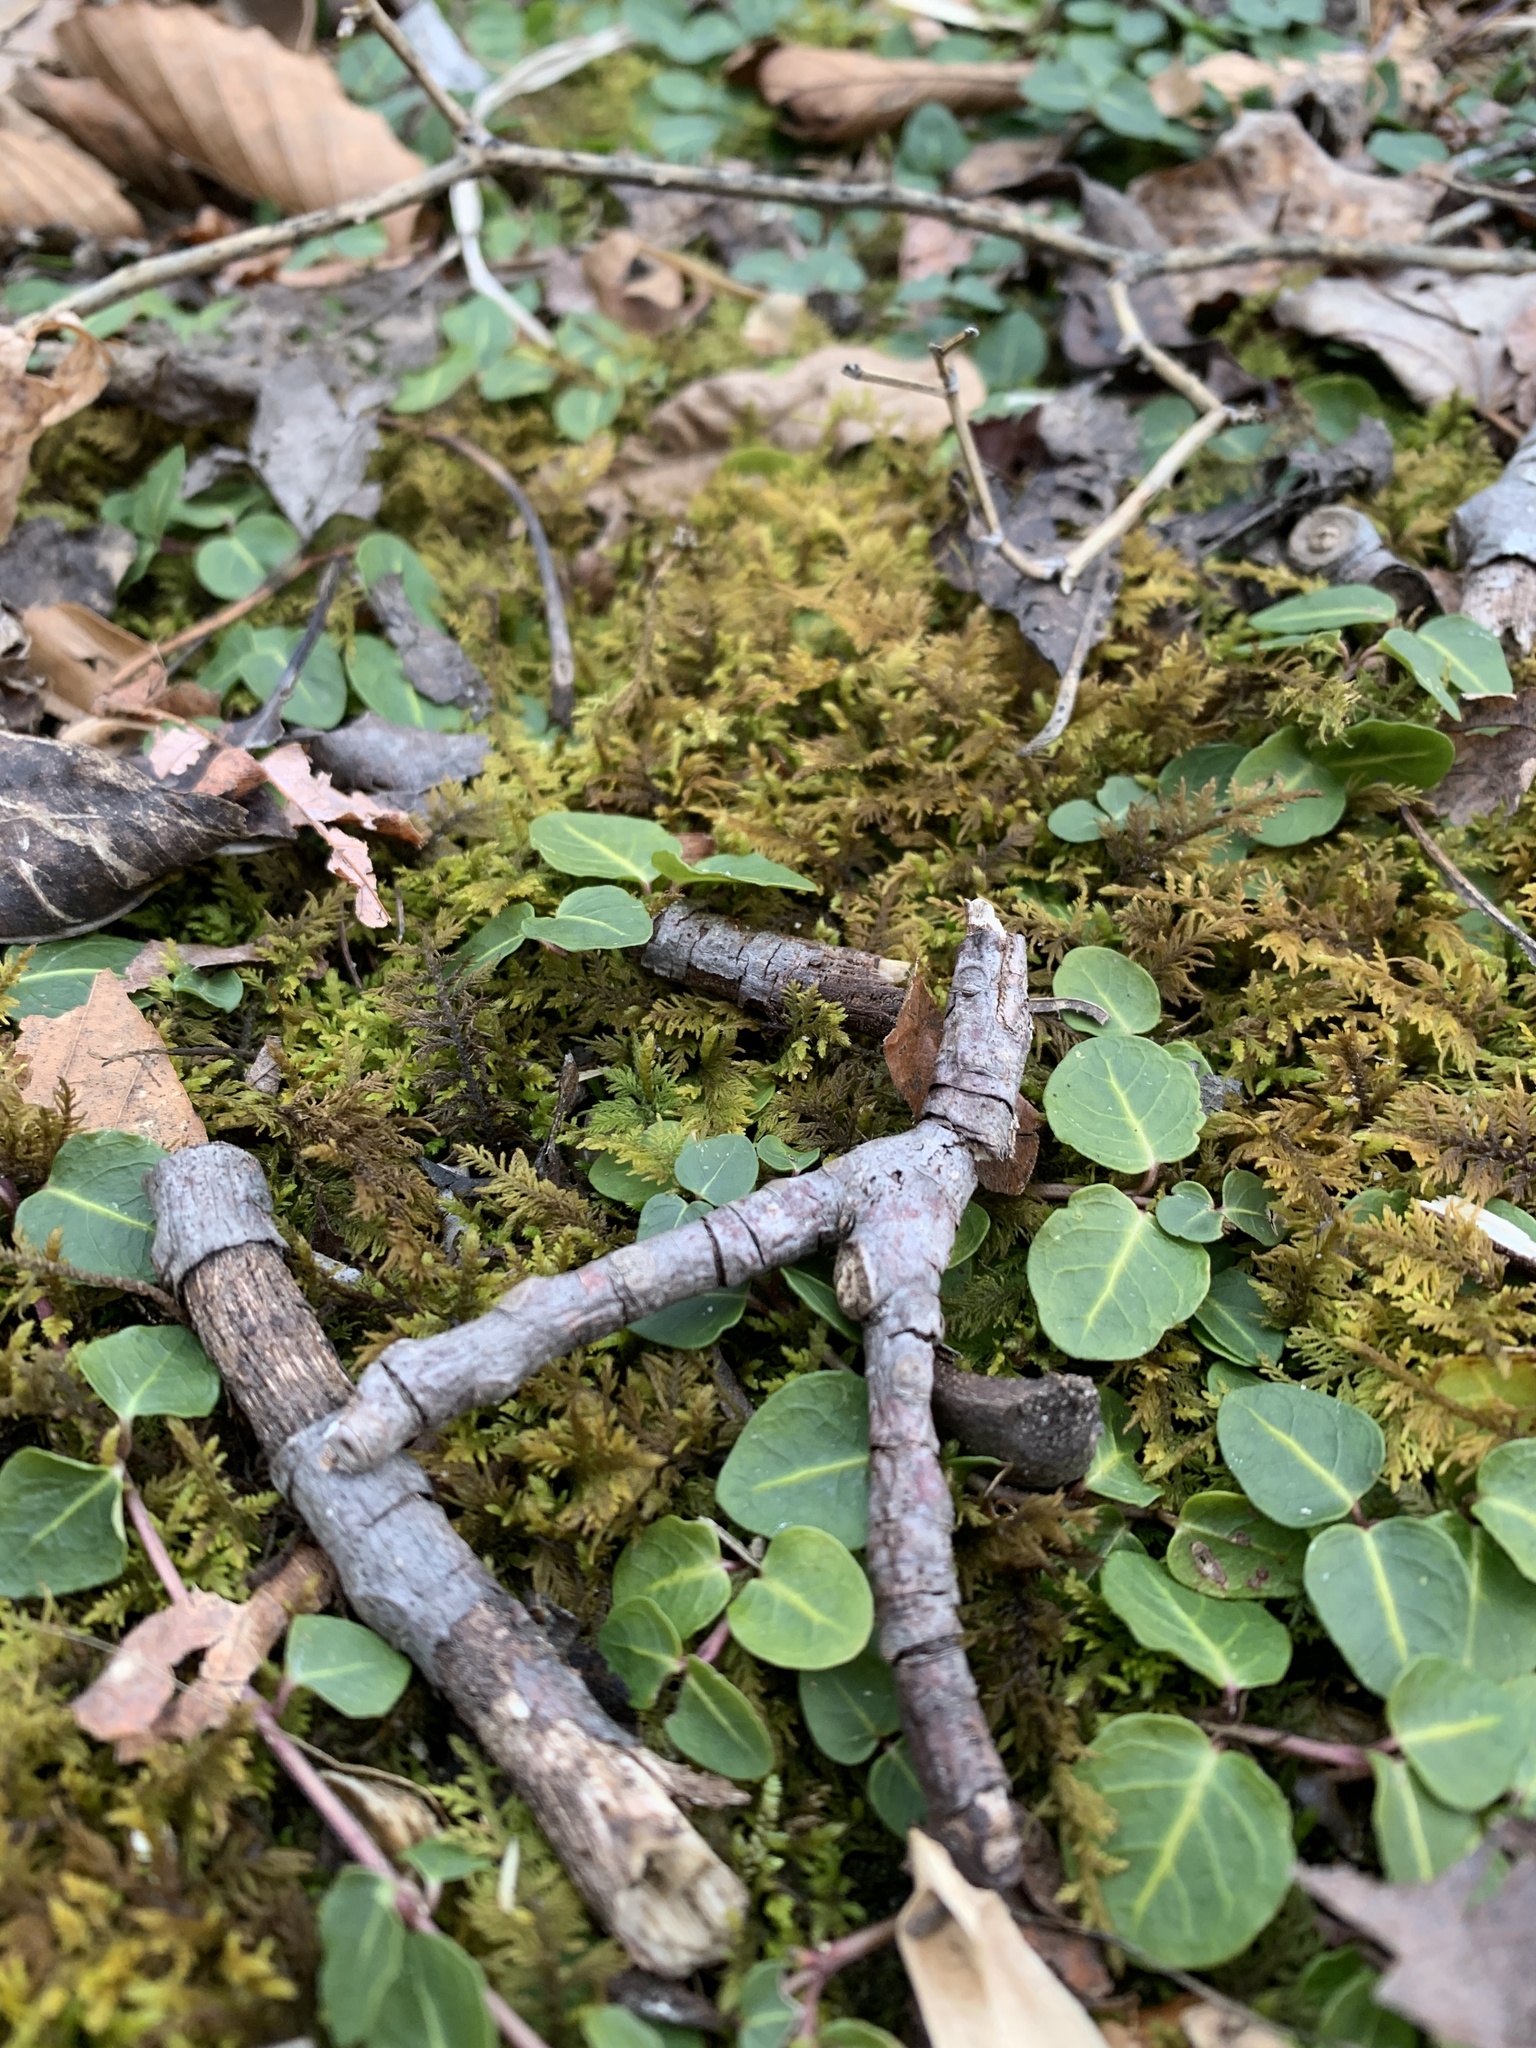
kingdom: Plantae
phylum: Tracheophyta
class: Magnoliopsida
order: Gentianales
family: Rubiaceae
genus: Mitchella
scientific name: Mitchella repens
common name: Partridge-berry
